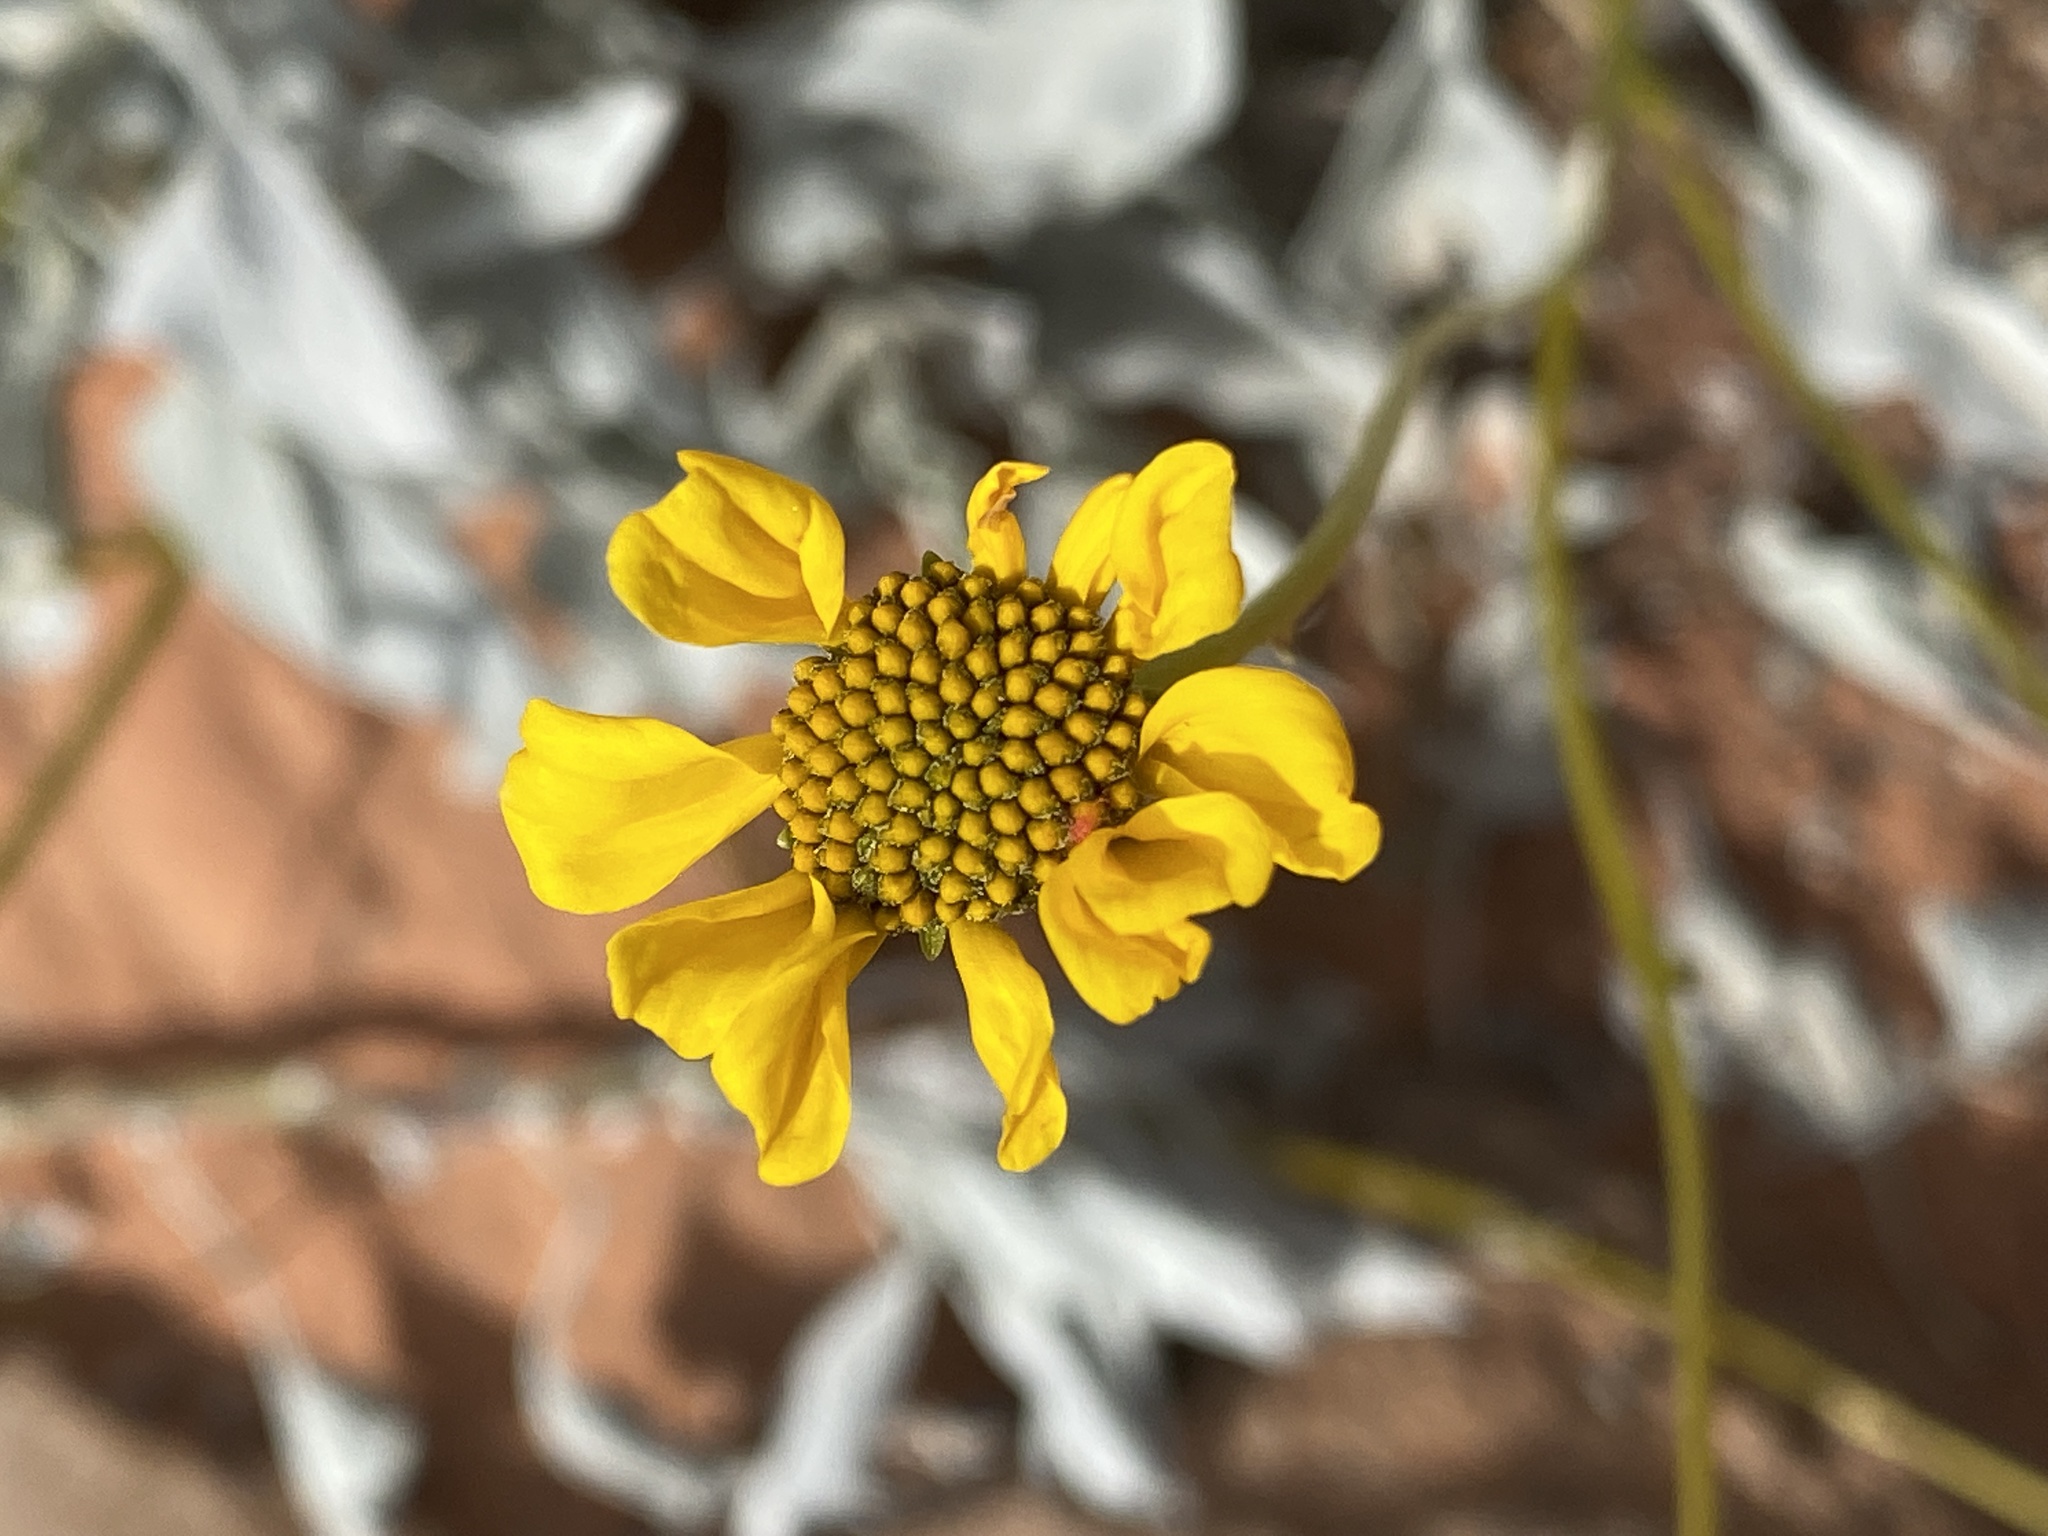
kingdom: Plantae
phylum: Tracheophyta
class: Magnoliopsida
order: Asterales
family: Asteraceae
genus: Encelia
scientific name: Encelia farinosa
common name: Brittlebush
